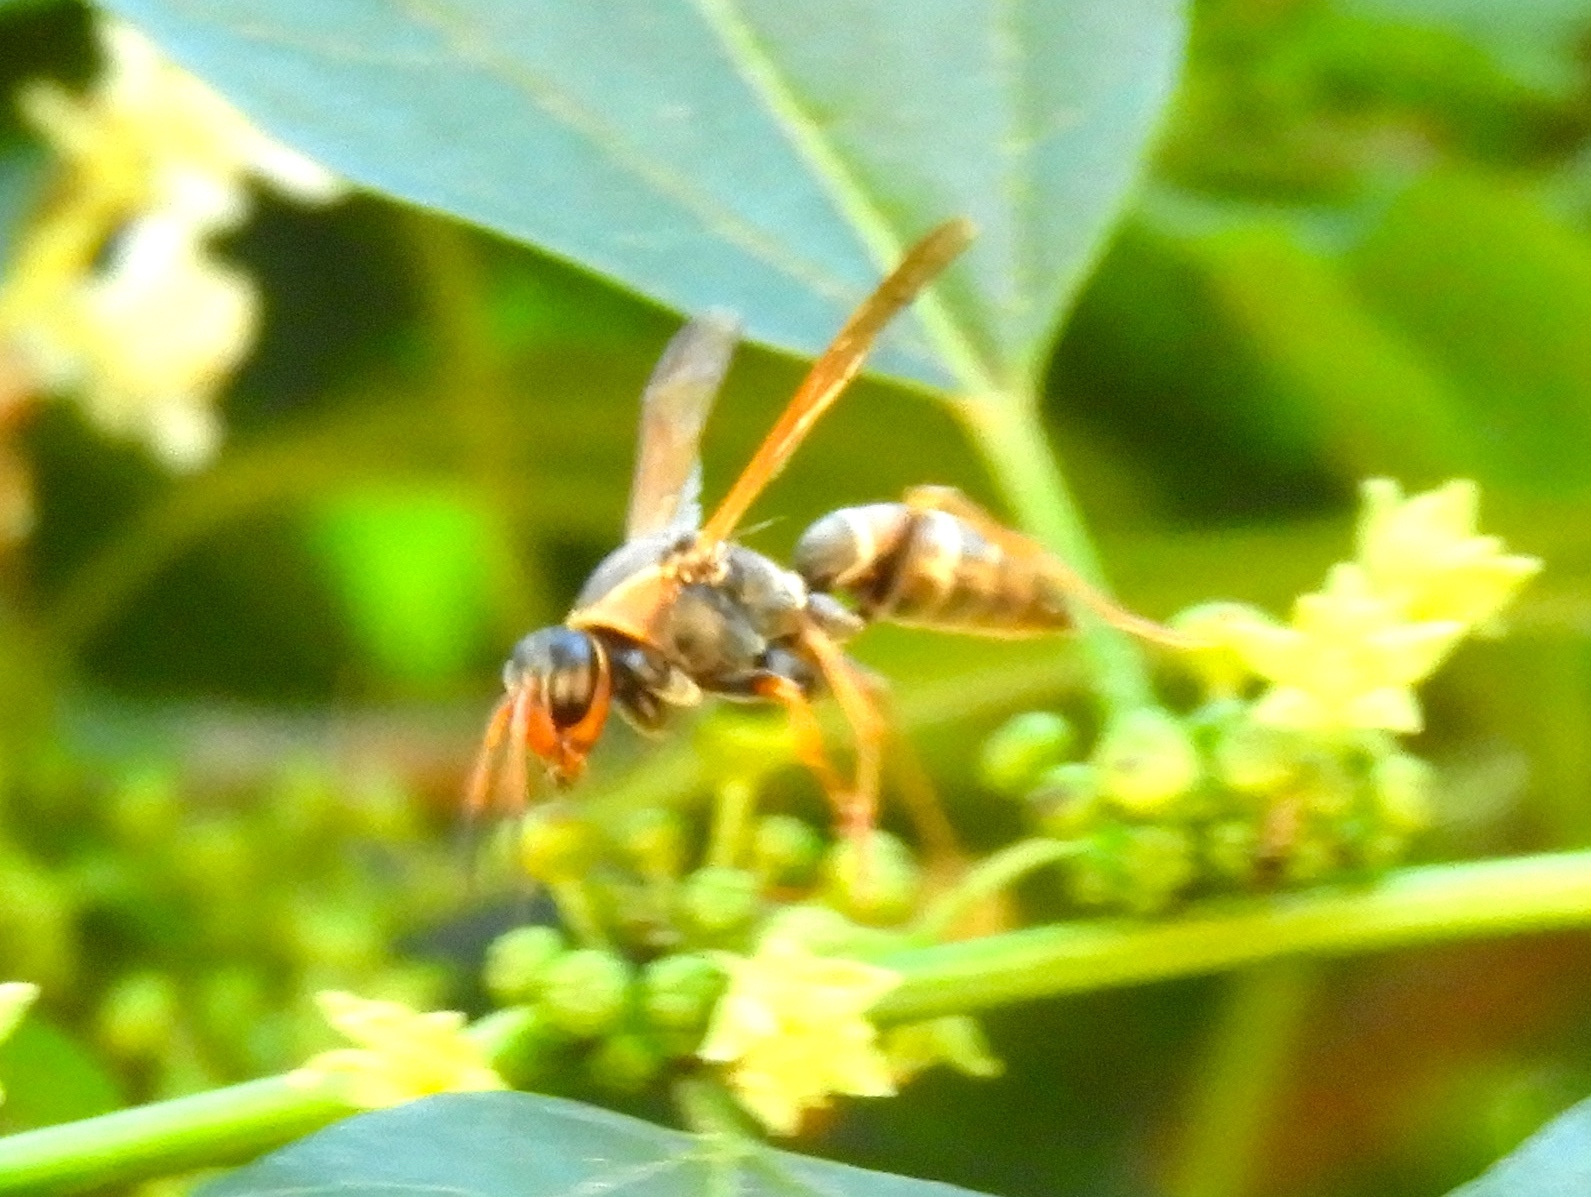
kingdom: Animalia
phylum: Arthropoda
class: Insecta
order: Hymenoptera
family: Eumenidae
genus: Polistes
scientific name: Polistes pacificus
